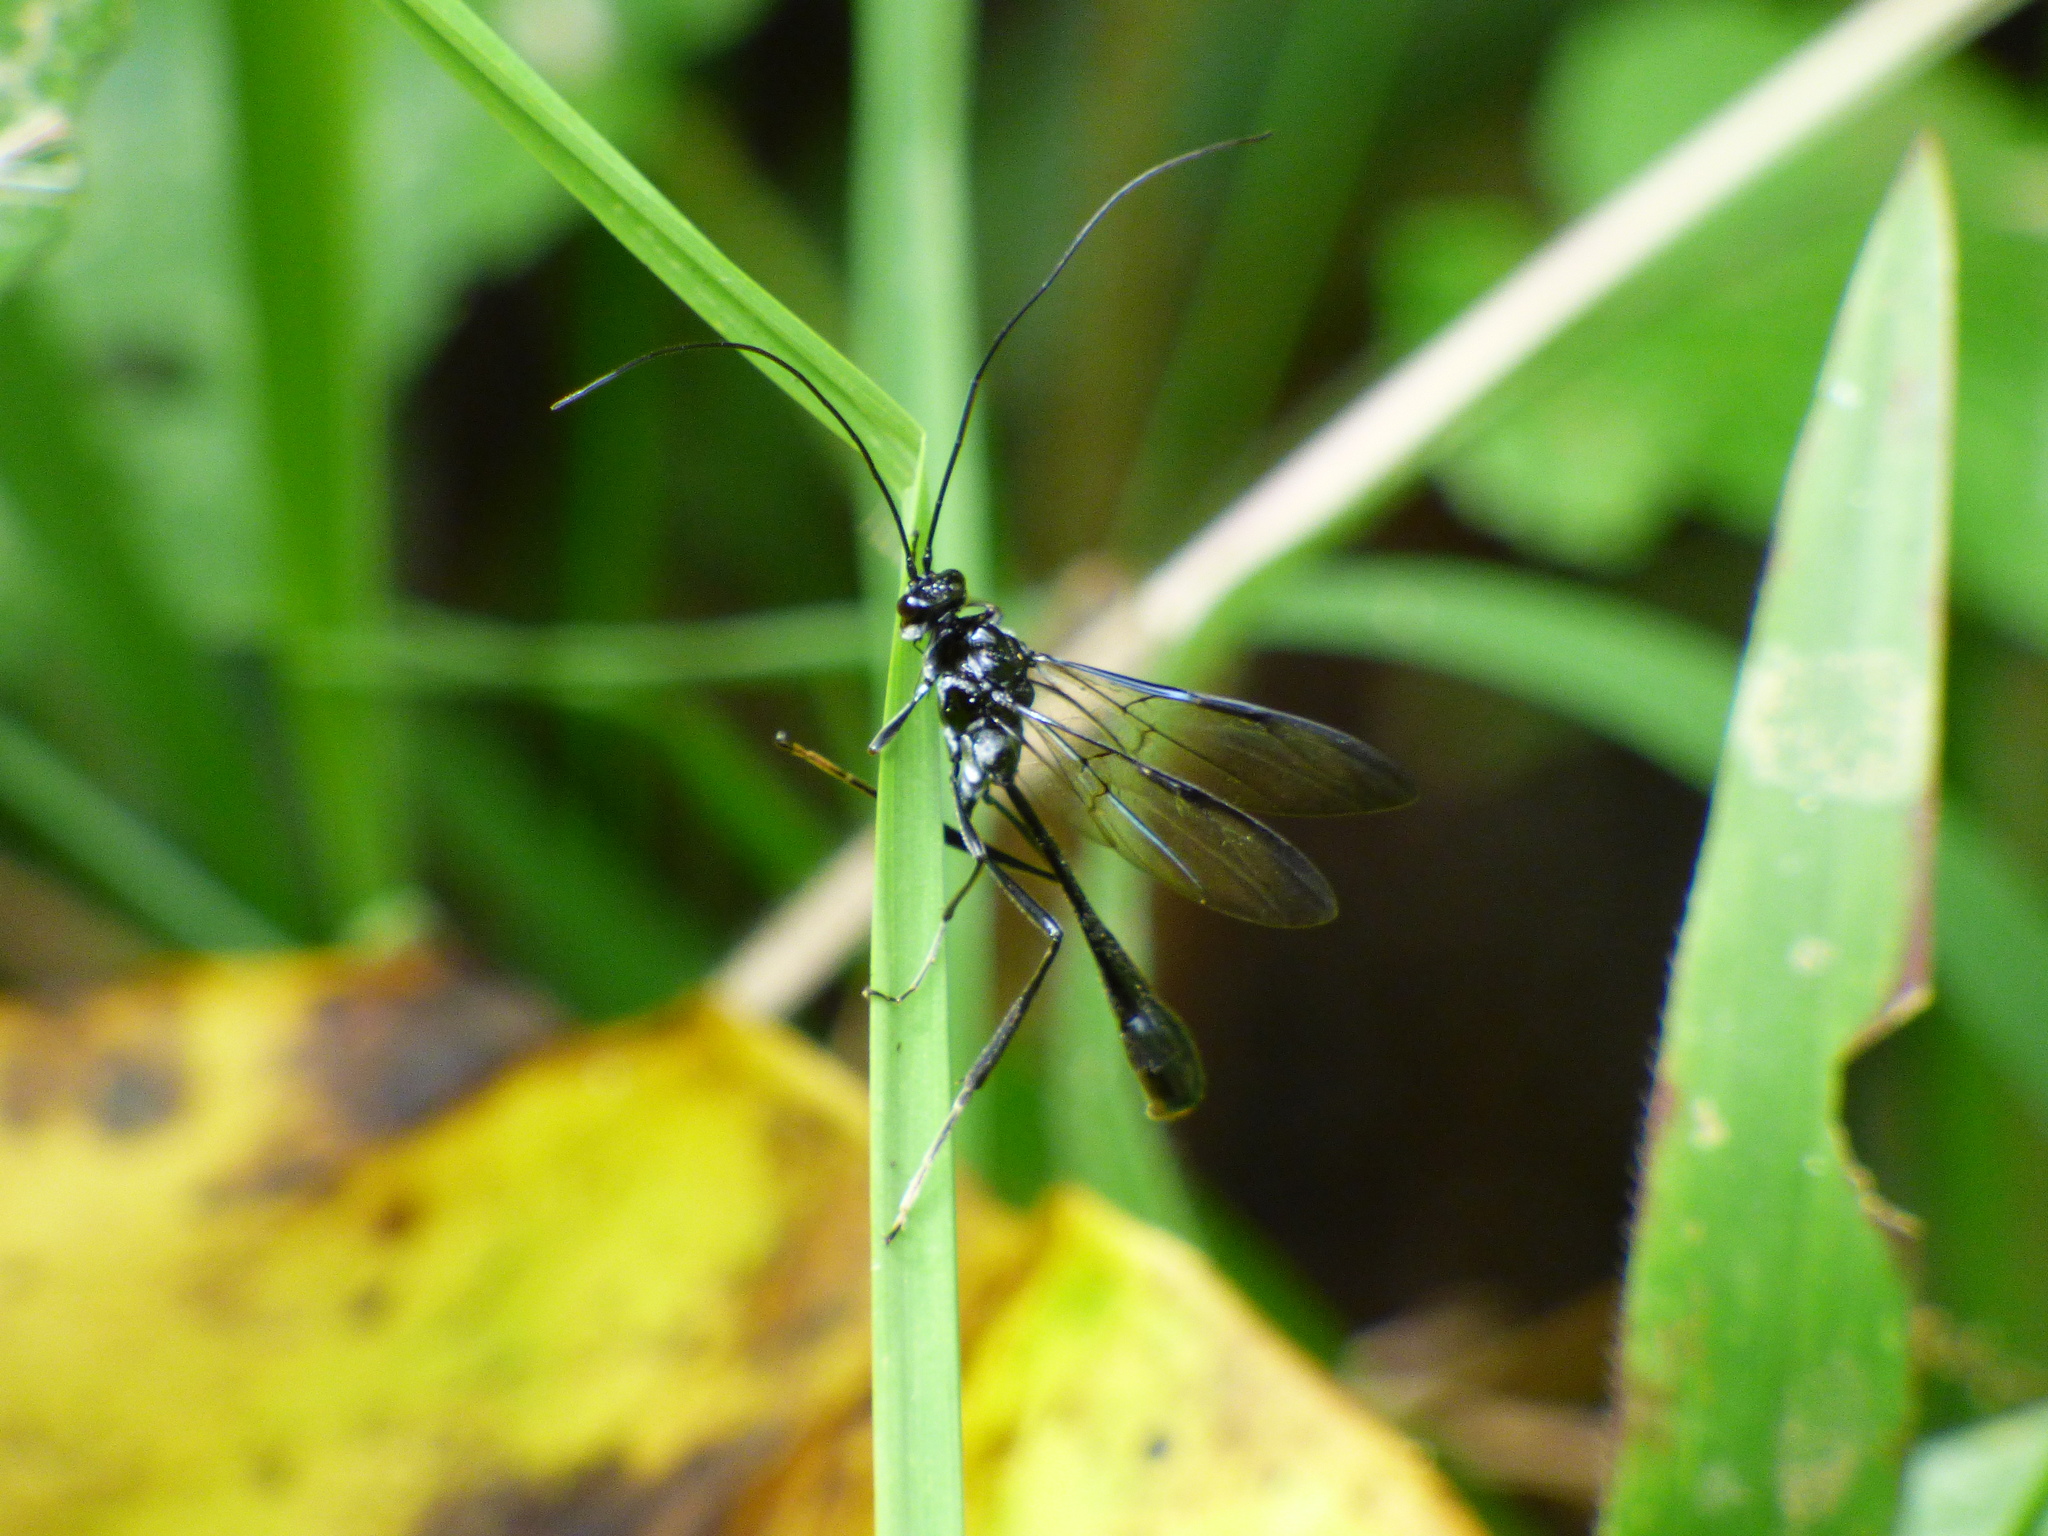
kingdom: Animalia
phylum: Arthropoda
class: Insecta
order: Hymenoptera
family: Pelecinidae
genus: Pelecinus
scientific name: Pelecinus polyturator
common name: American pelecinid wasp
